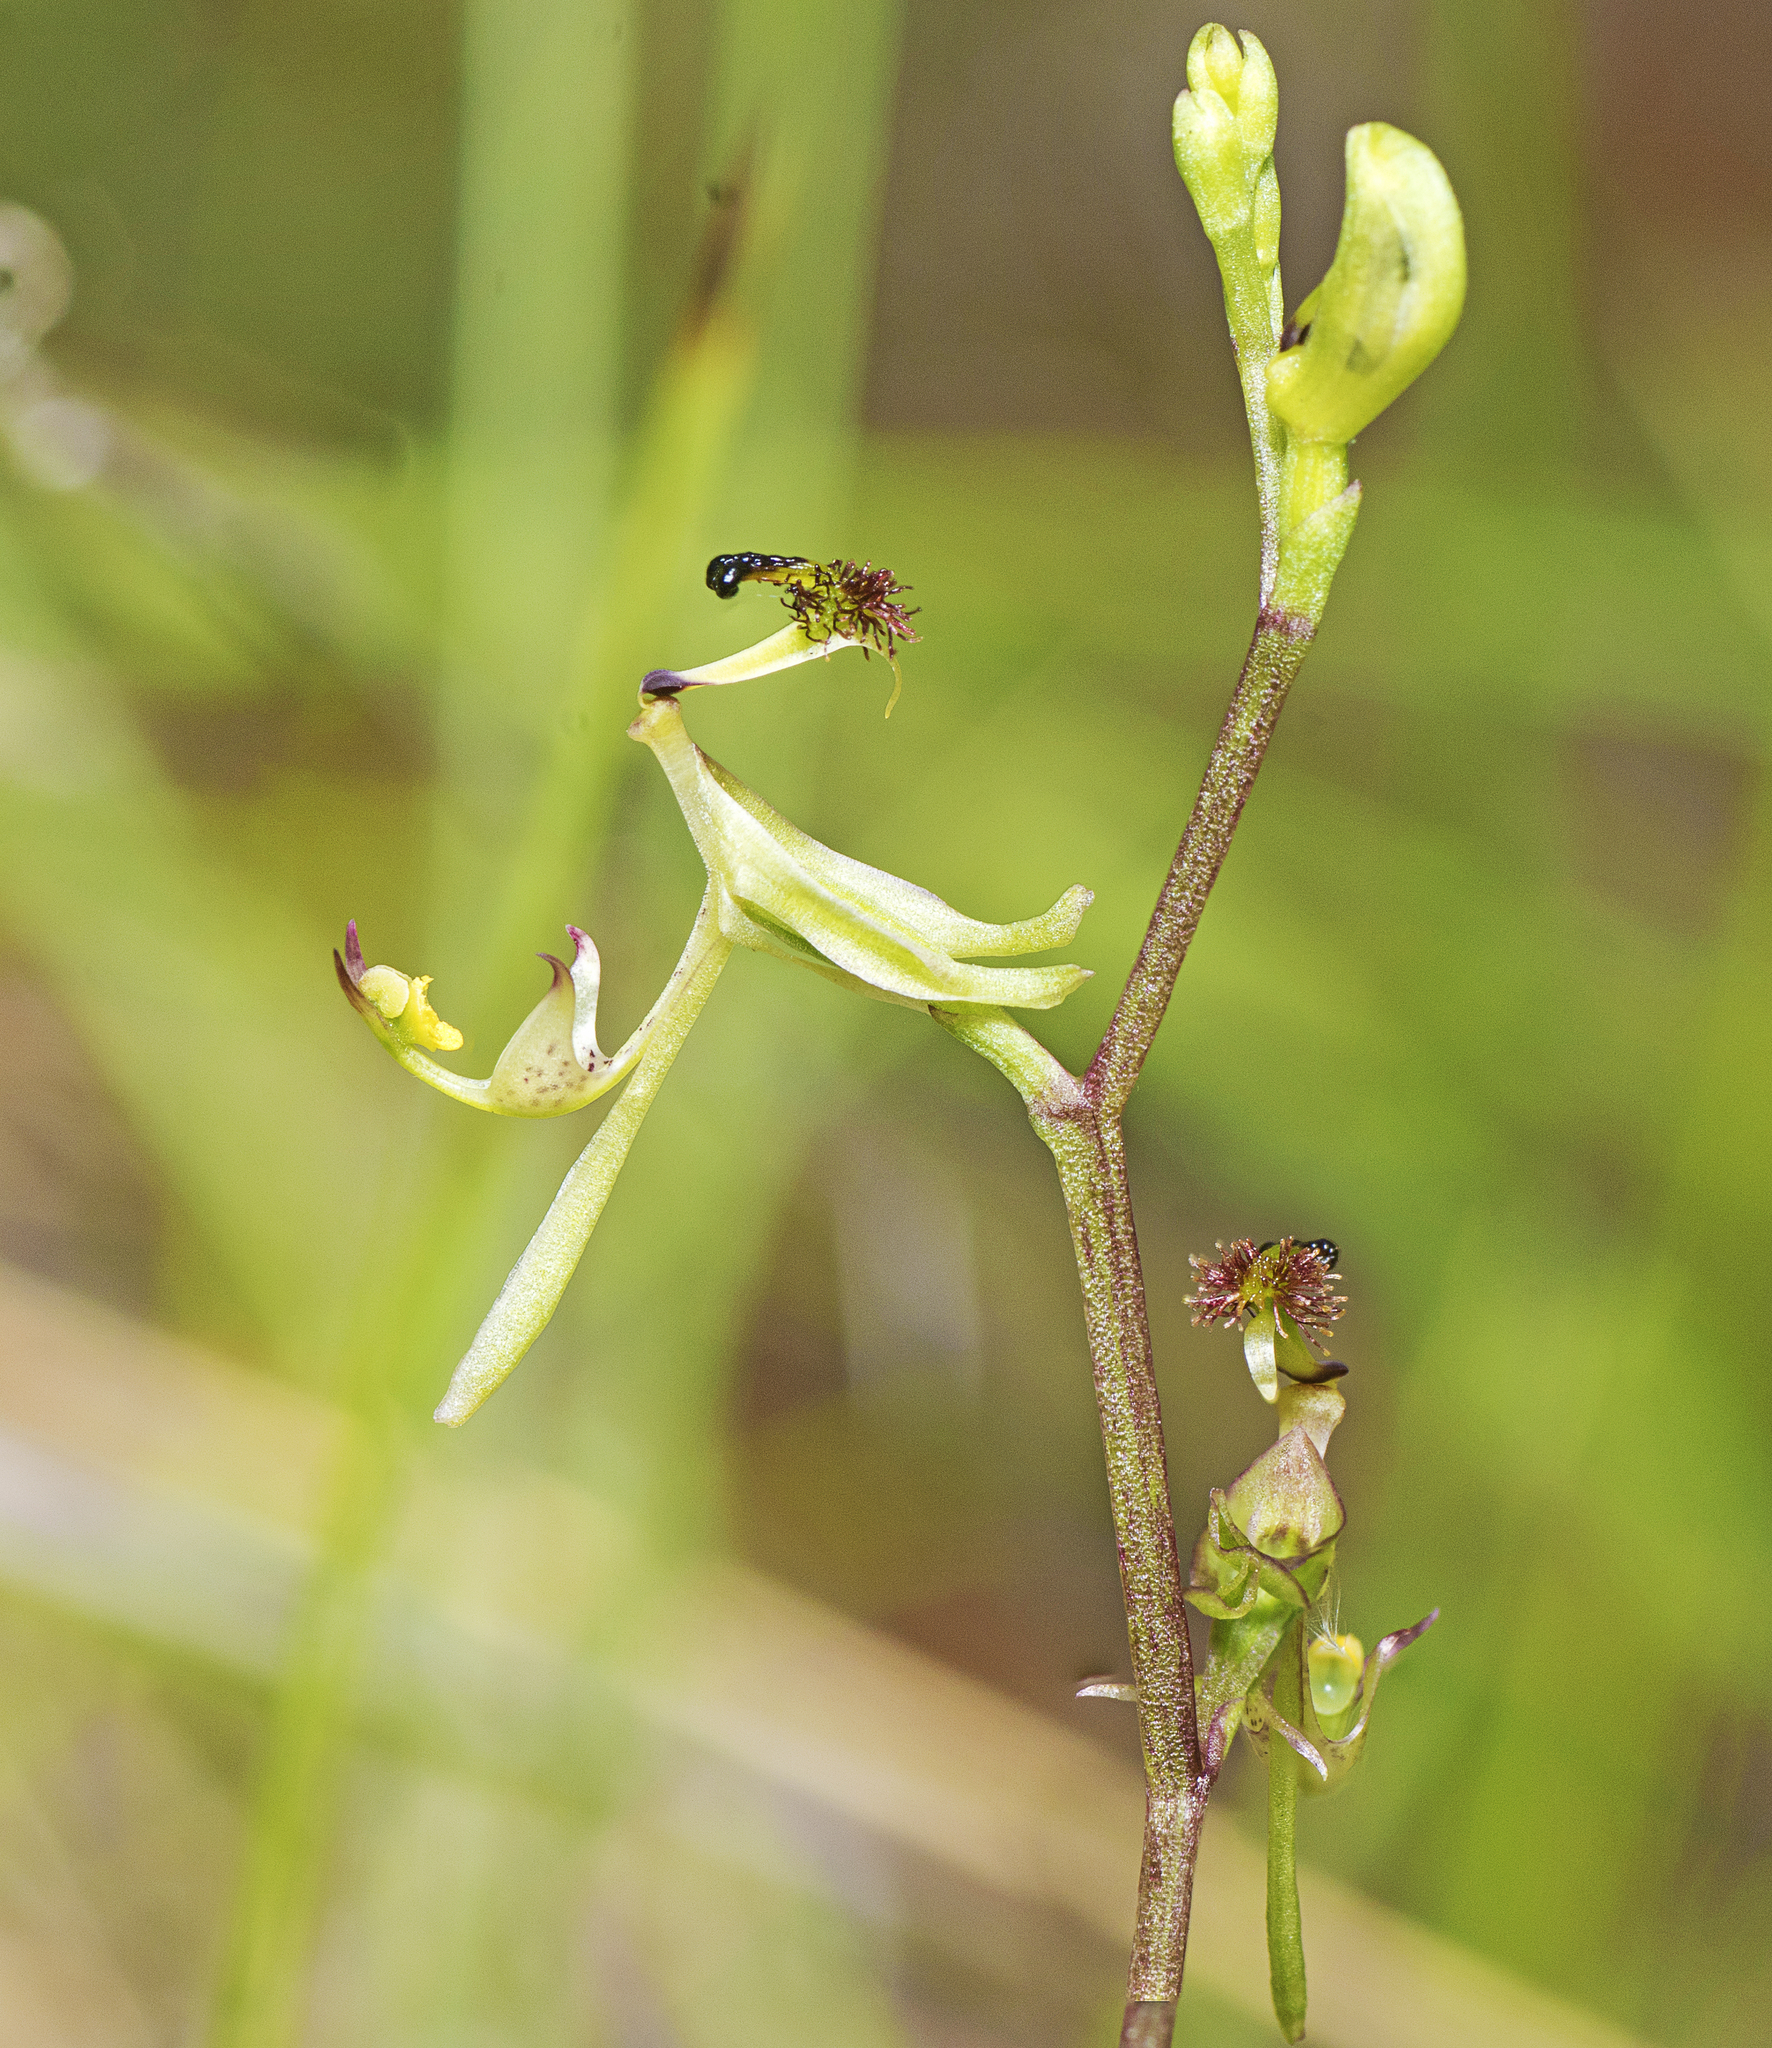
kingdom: Plantae
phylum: Tracheophyta
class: Liliopsida
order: Asparagales
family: Orchidaceae
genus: Arthrochilus
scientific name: Arthrochilus prolixus
